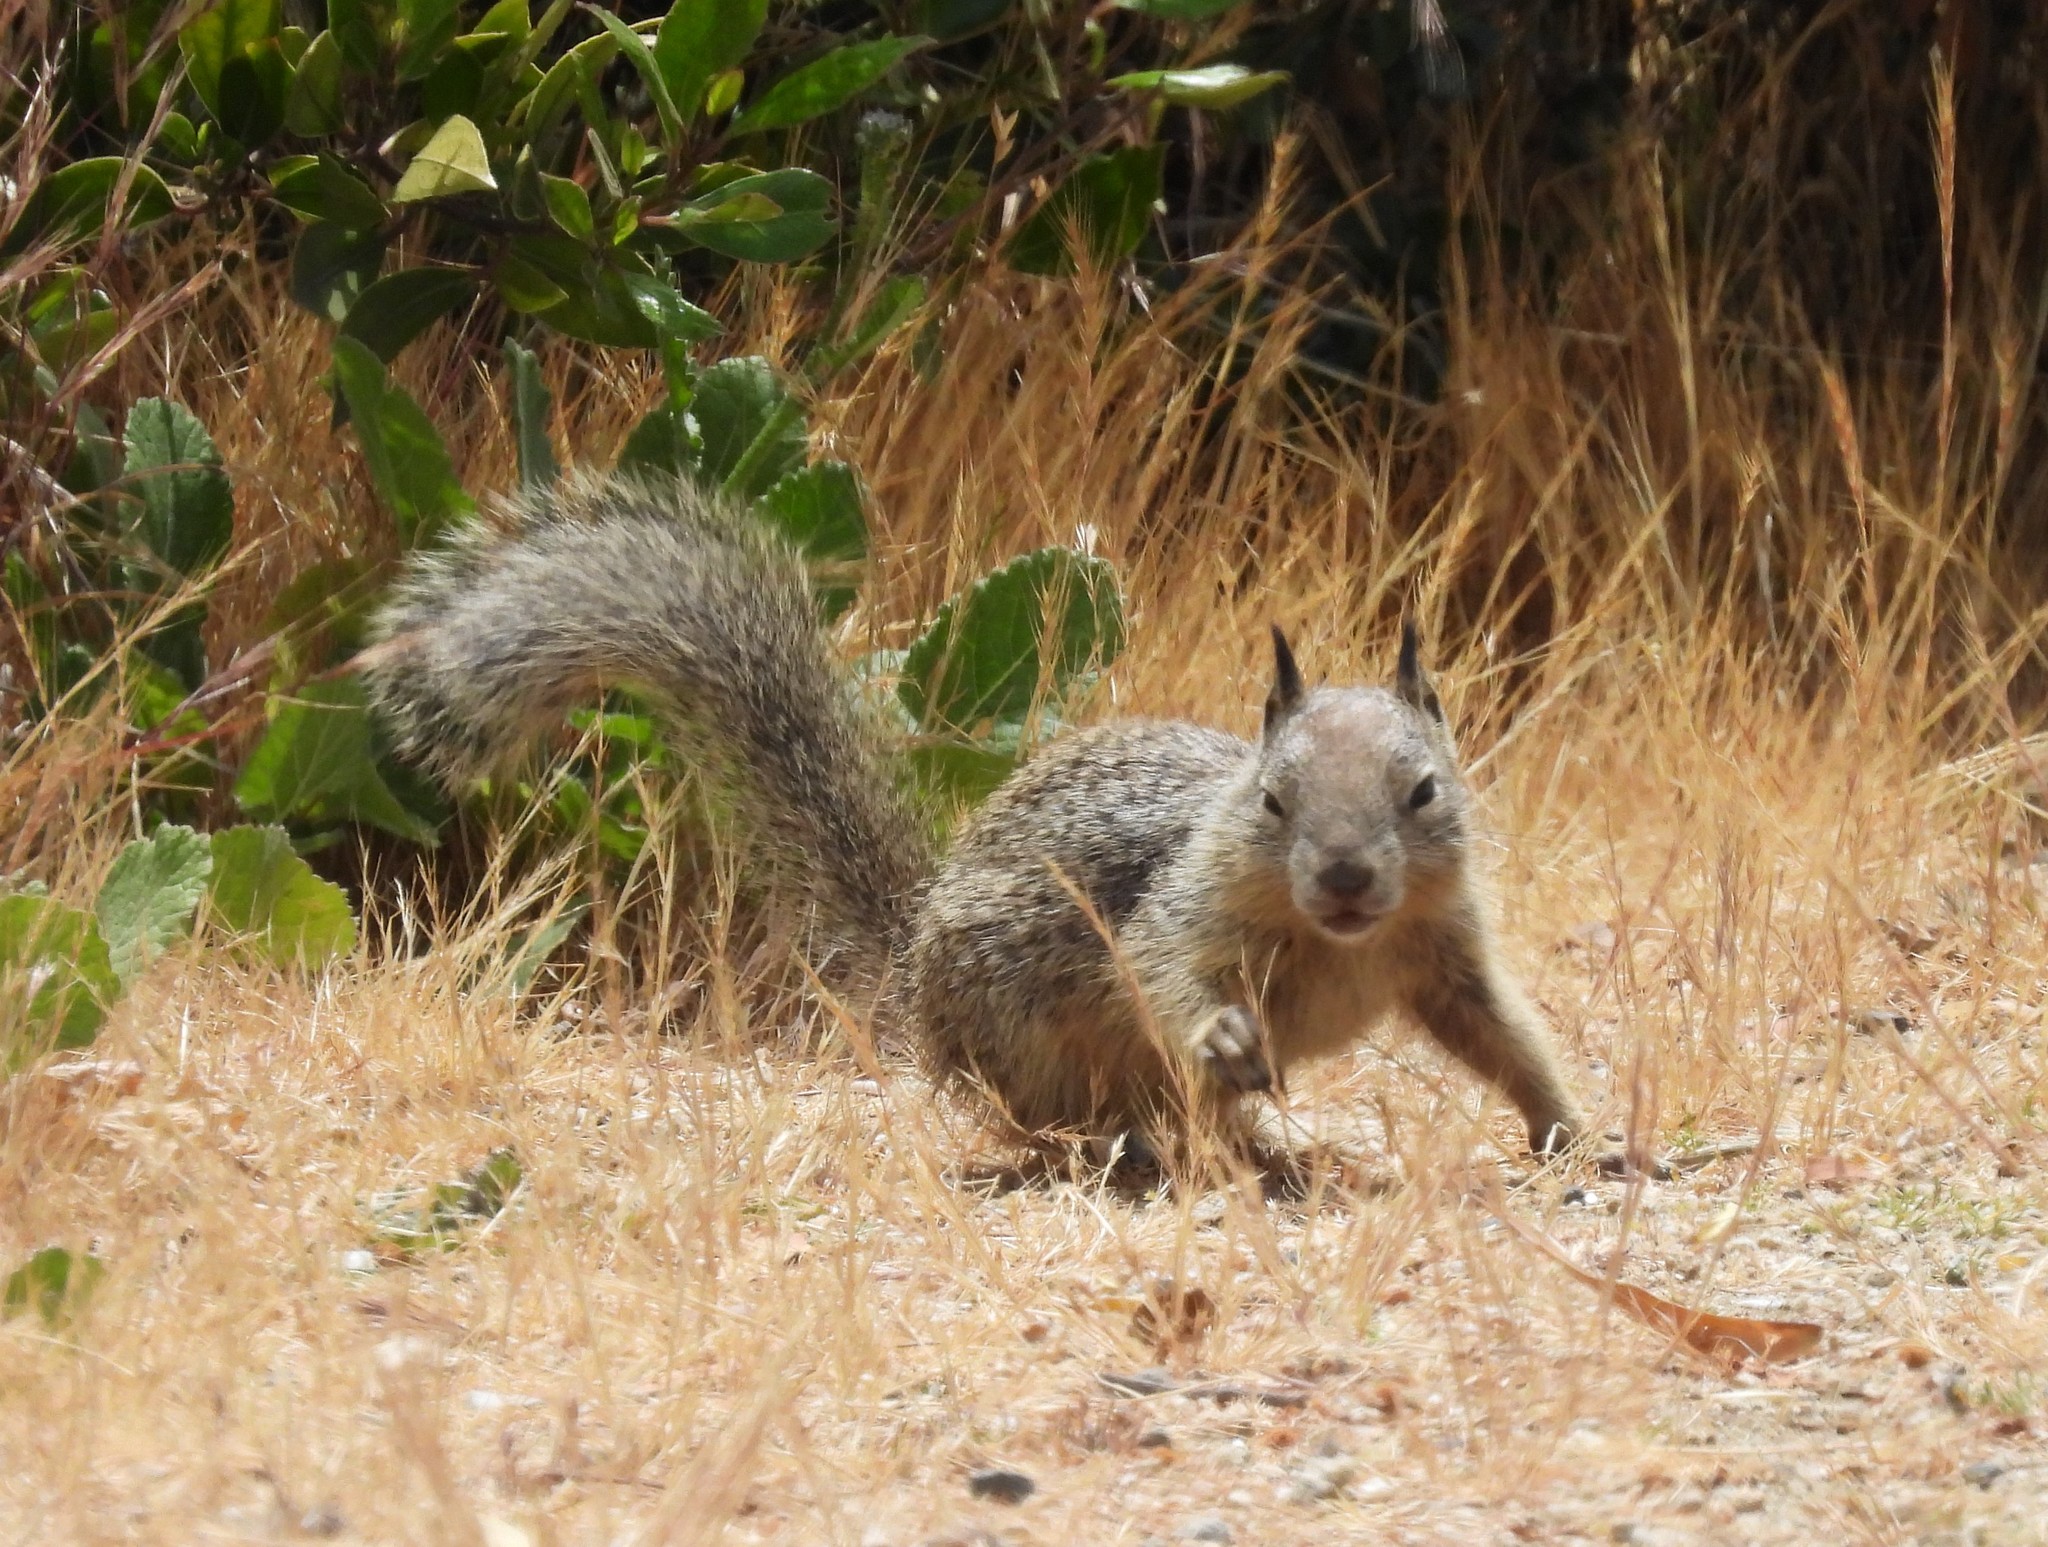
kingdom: Animalia
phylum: Chordata
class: Mammalia
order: Rodentia
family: Sciuridae
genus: Otospermophilus
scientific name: Otospermophilus beecheyi
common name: California ground squirrel
